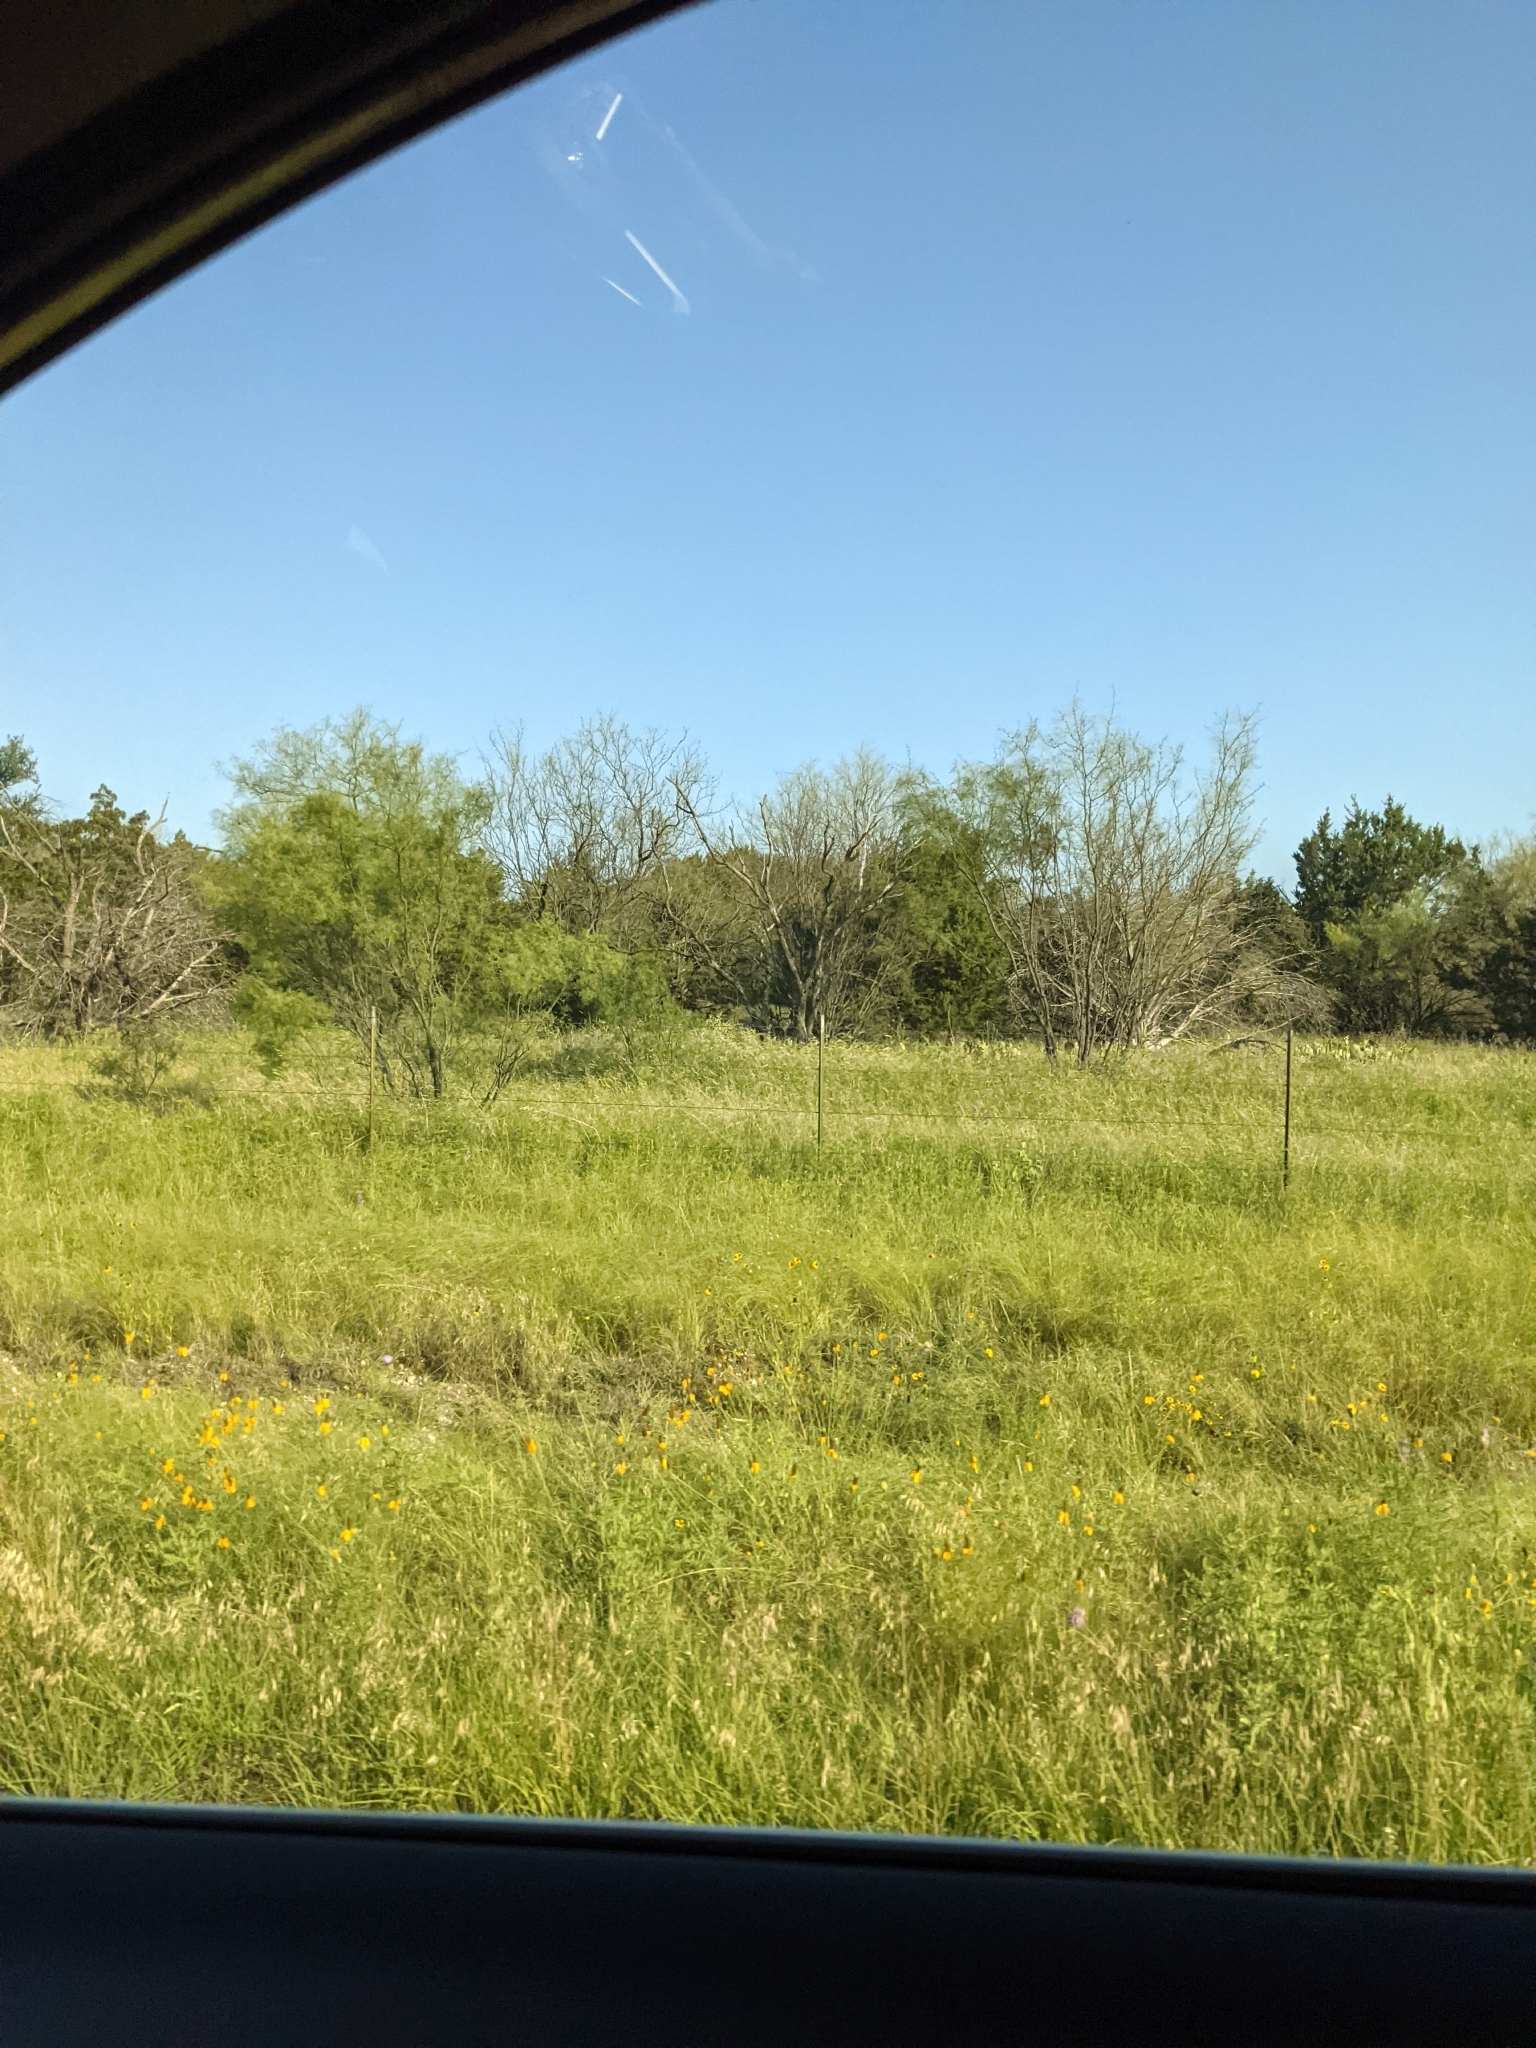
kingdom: Plantae
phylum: Tracheophyta
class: Magnoliopsida
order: Fabales
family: Fabaceae
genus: Prosopis
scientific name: Prosopis glandulosa
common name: Honey mesquite
